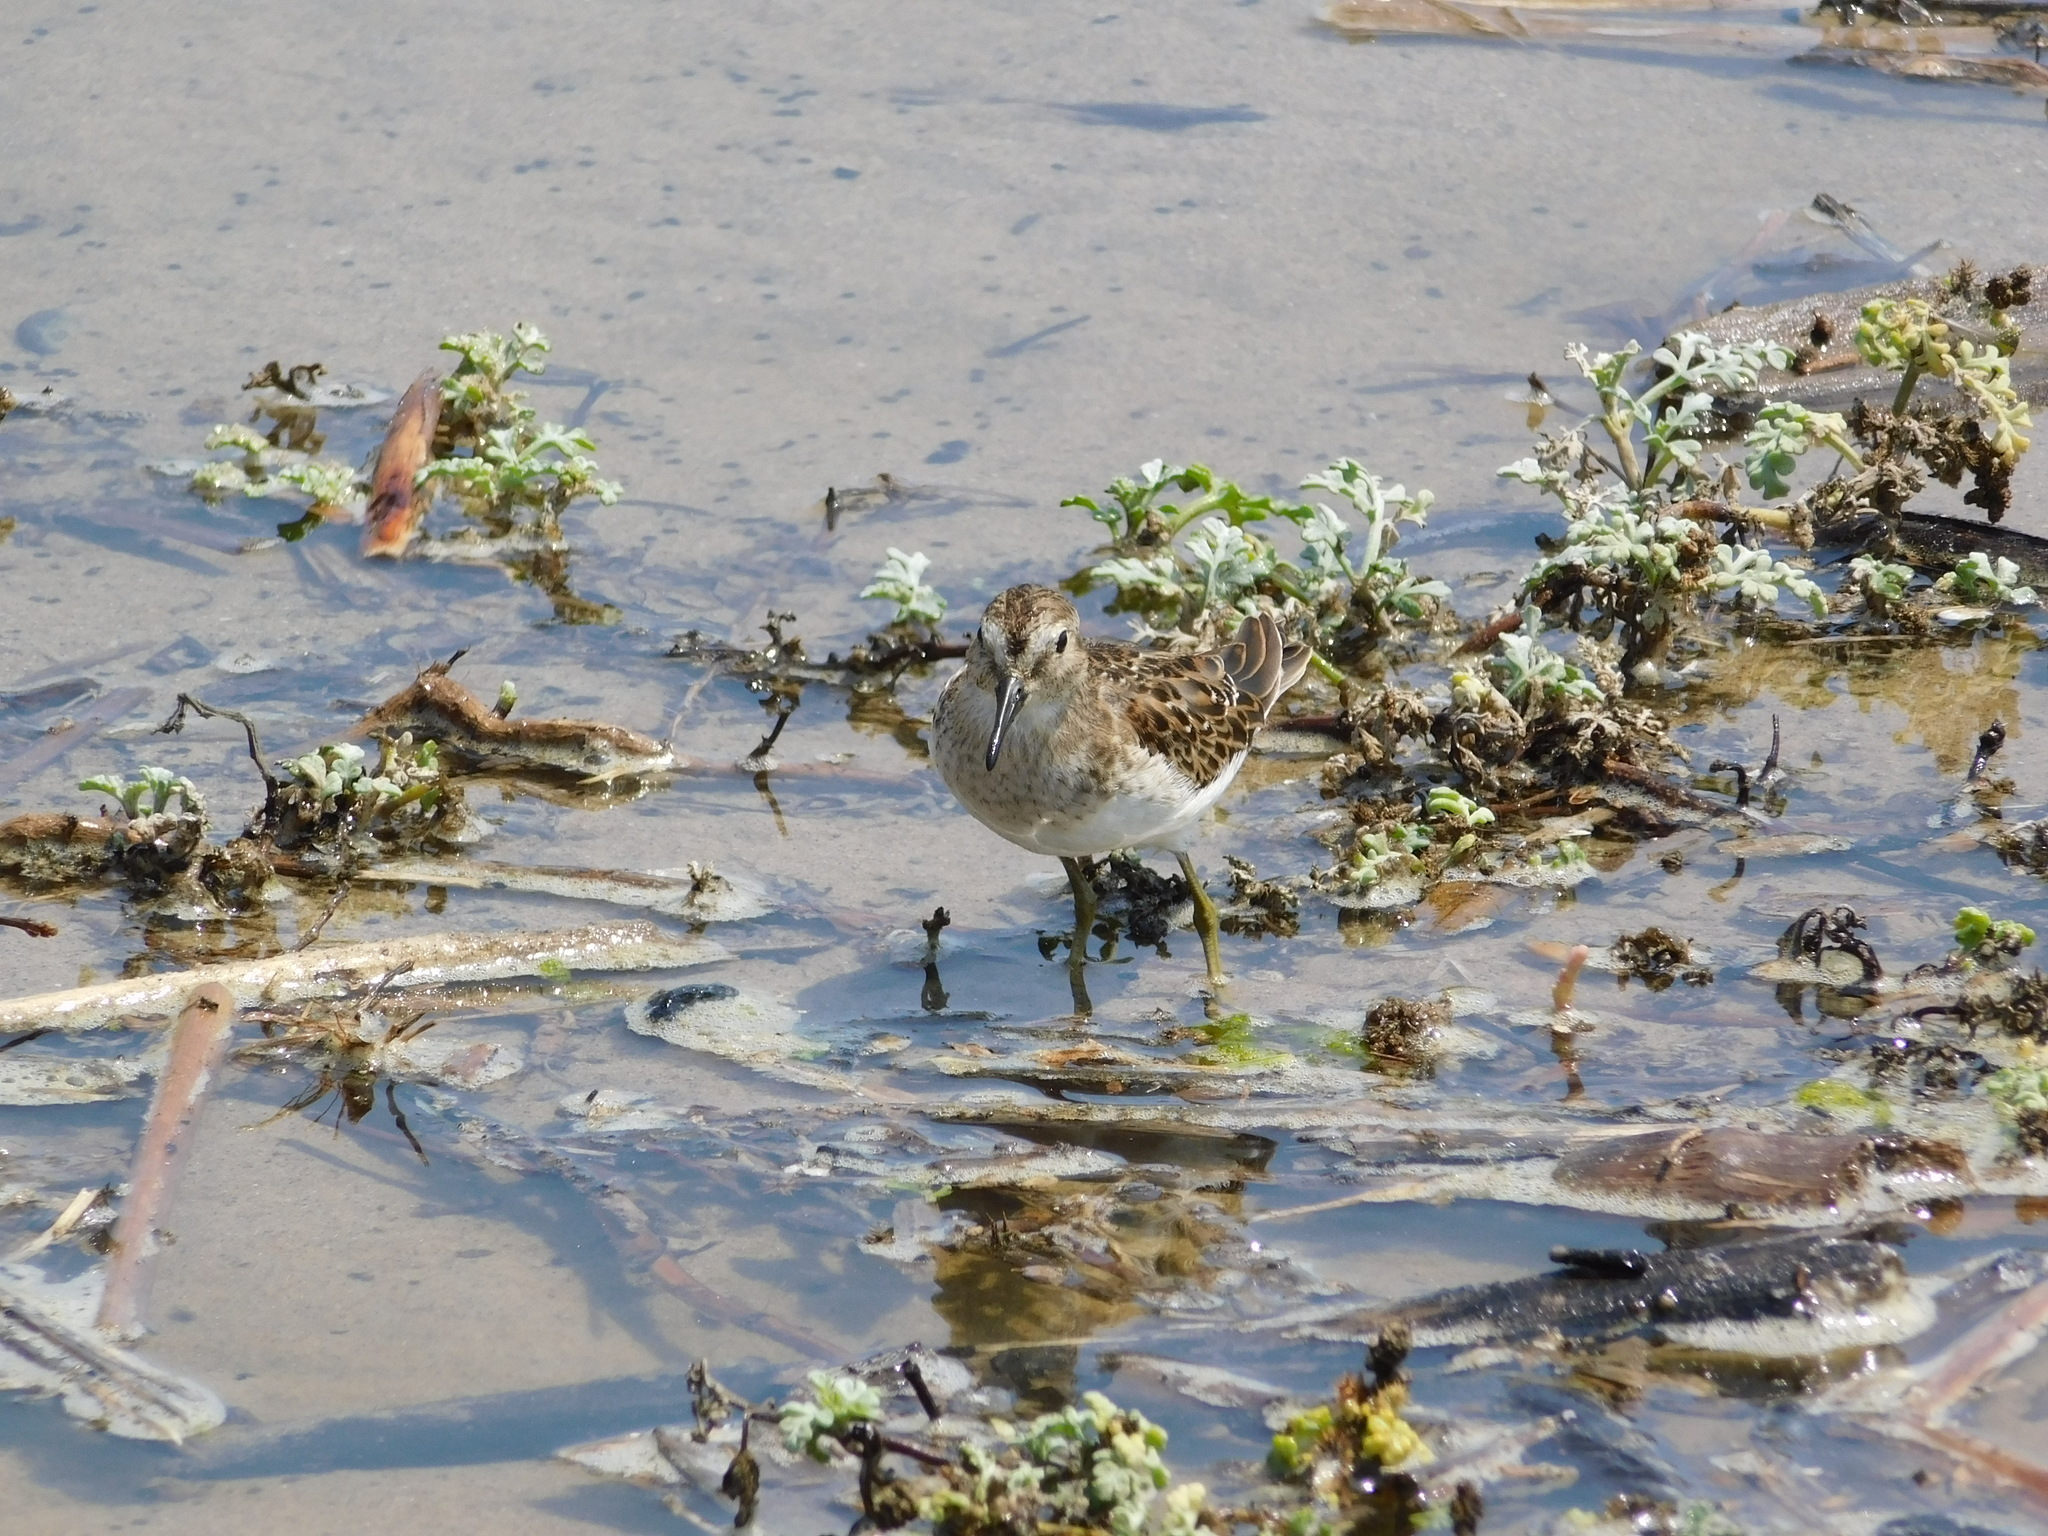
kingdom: Animalia
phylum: Chordata
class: Aves
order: Charadriiformes
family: Scolopacidae
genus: Calidris
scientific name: Calidris minutilla
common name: Least sandpiper
